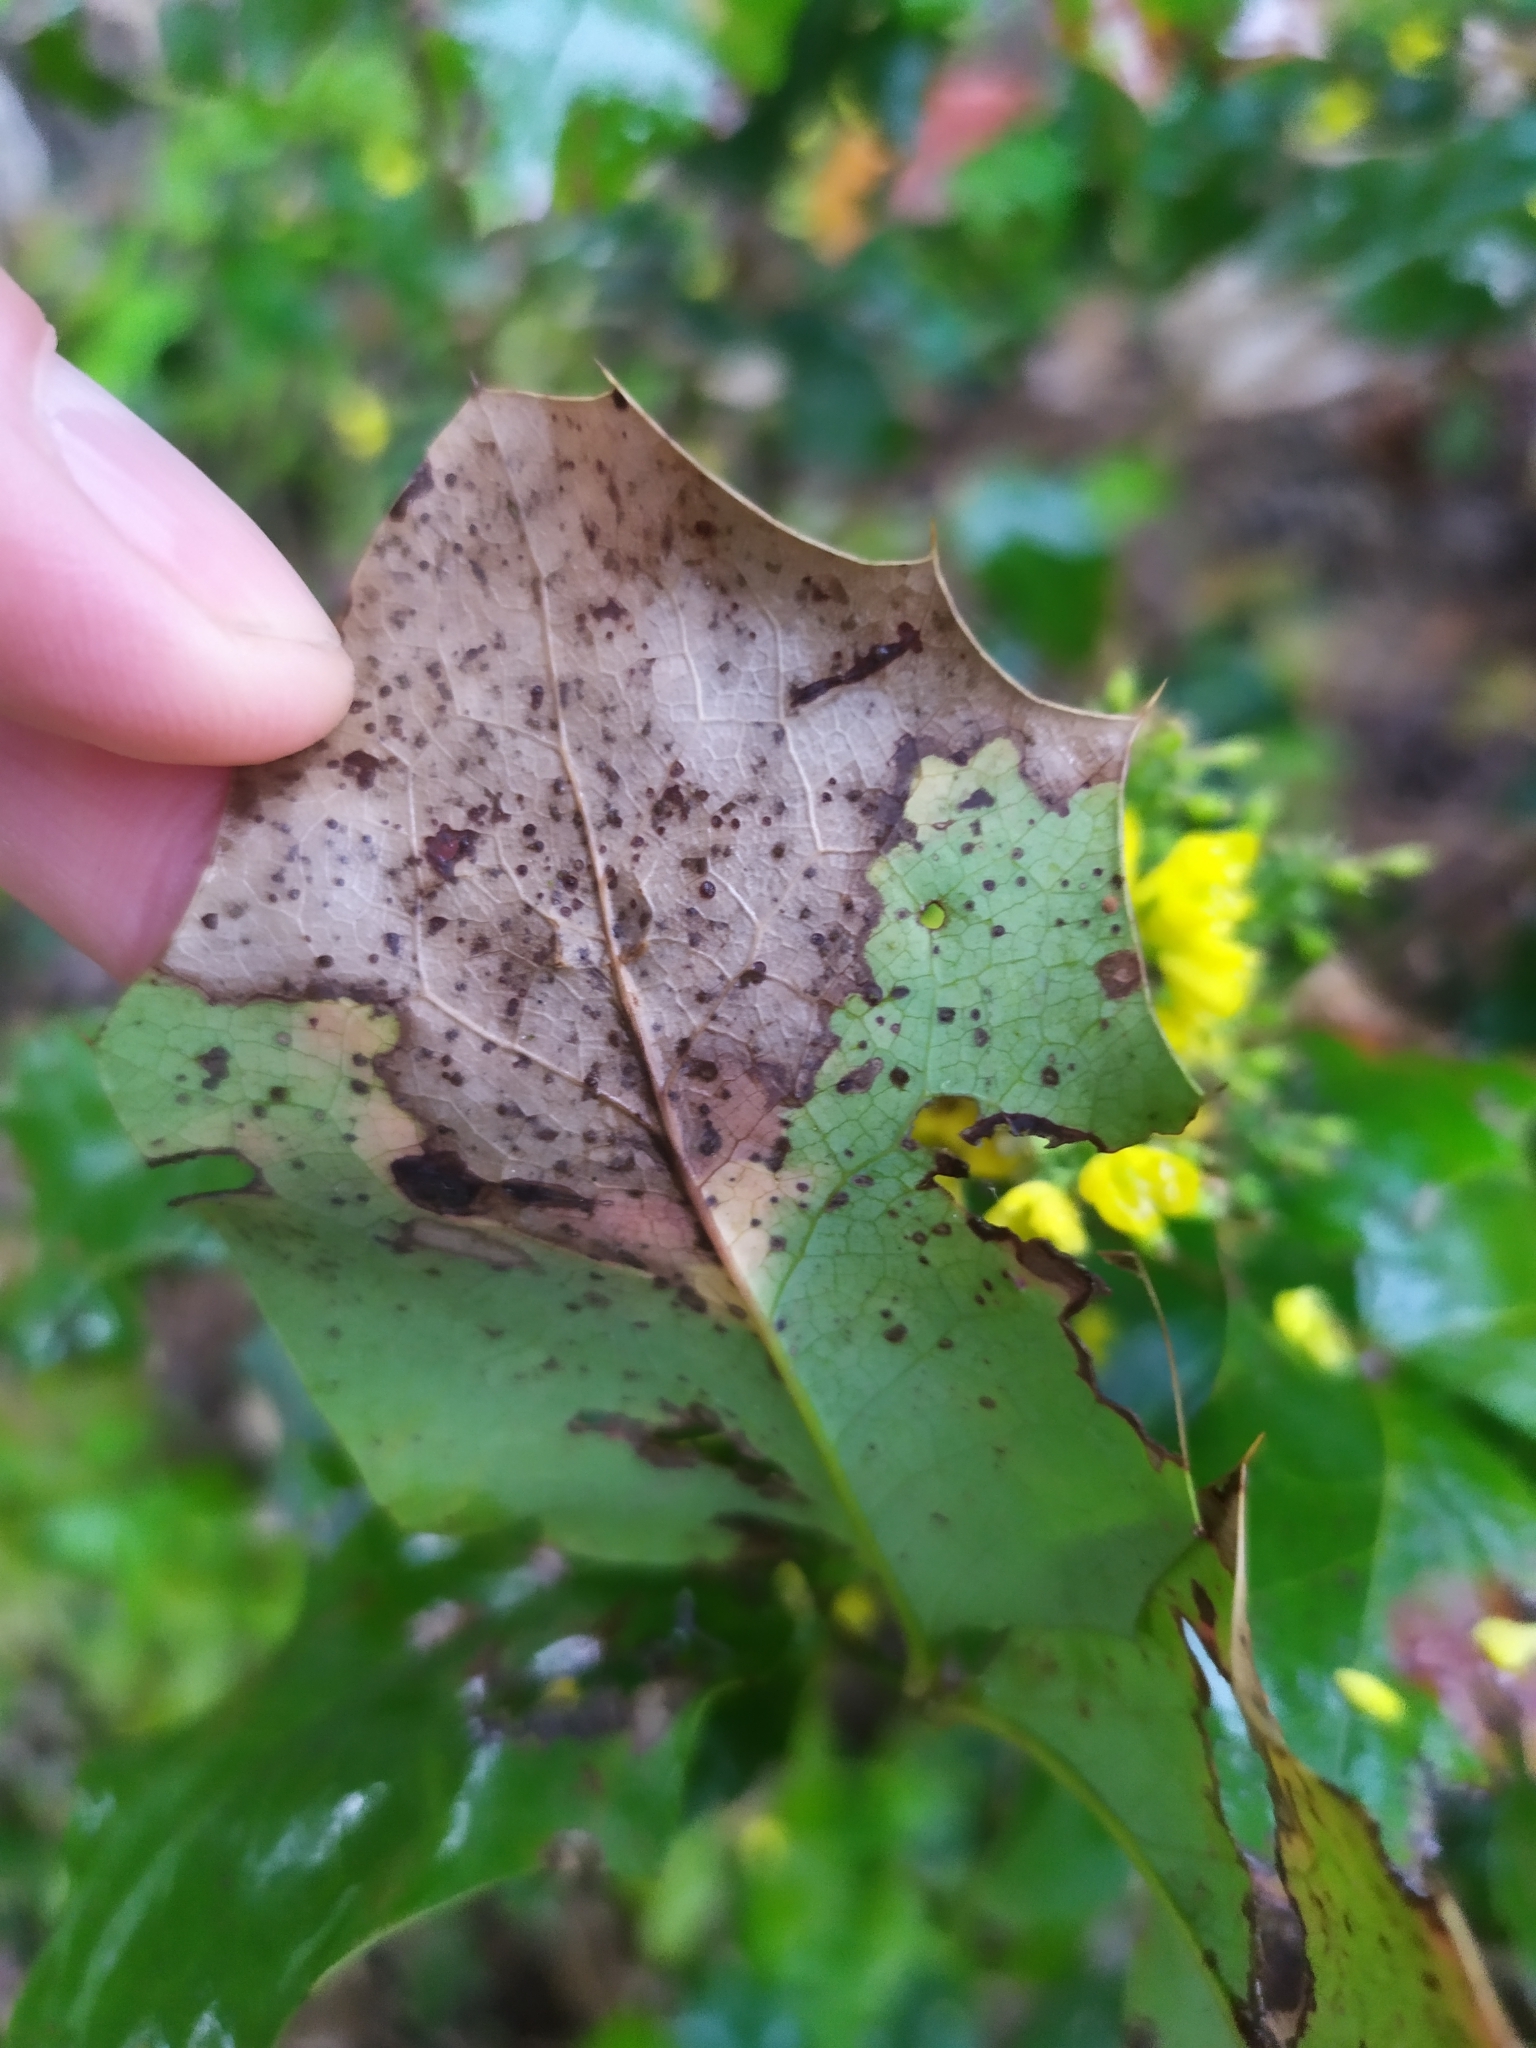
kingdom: Fungi
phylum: Basidiomycota
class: Pucciniomycetes
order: Pucciniales
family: Pucciniaceae
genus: Cumminsiella
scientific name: Cumminsiella mirabilissima
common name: Mahonia rust
